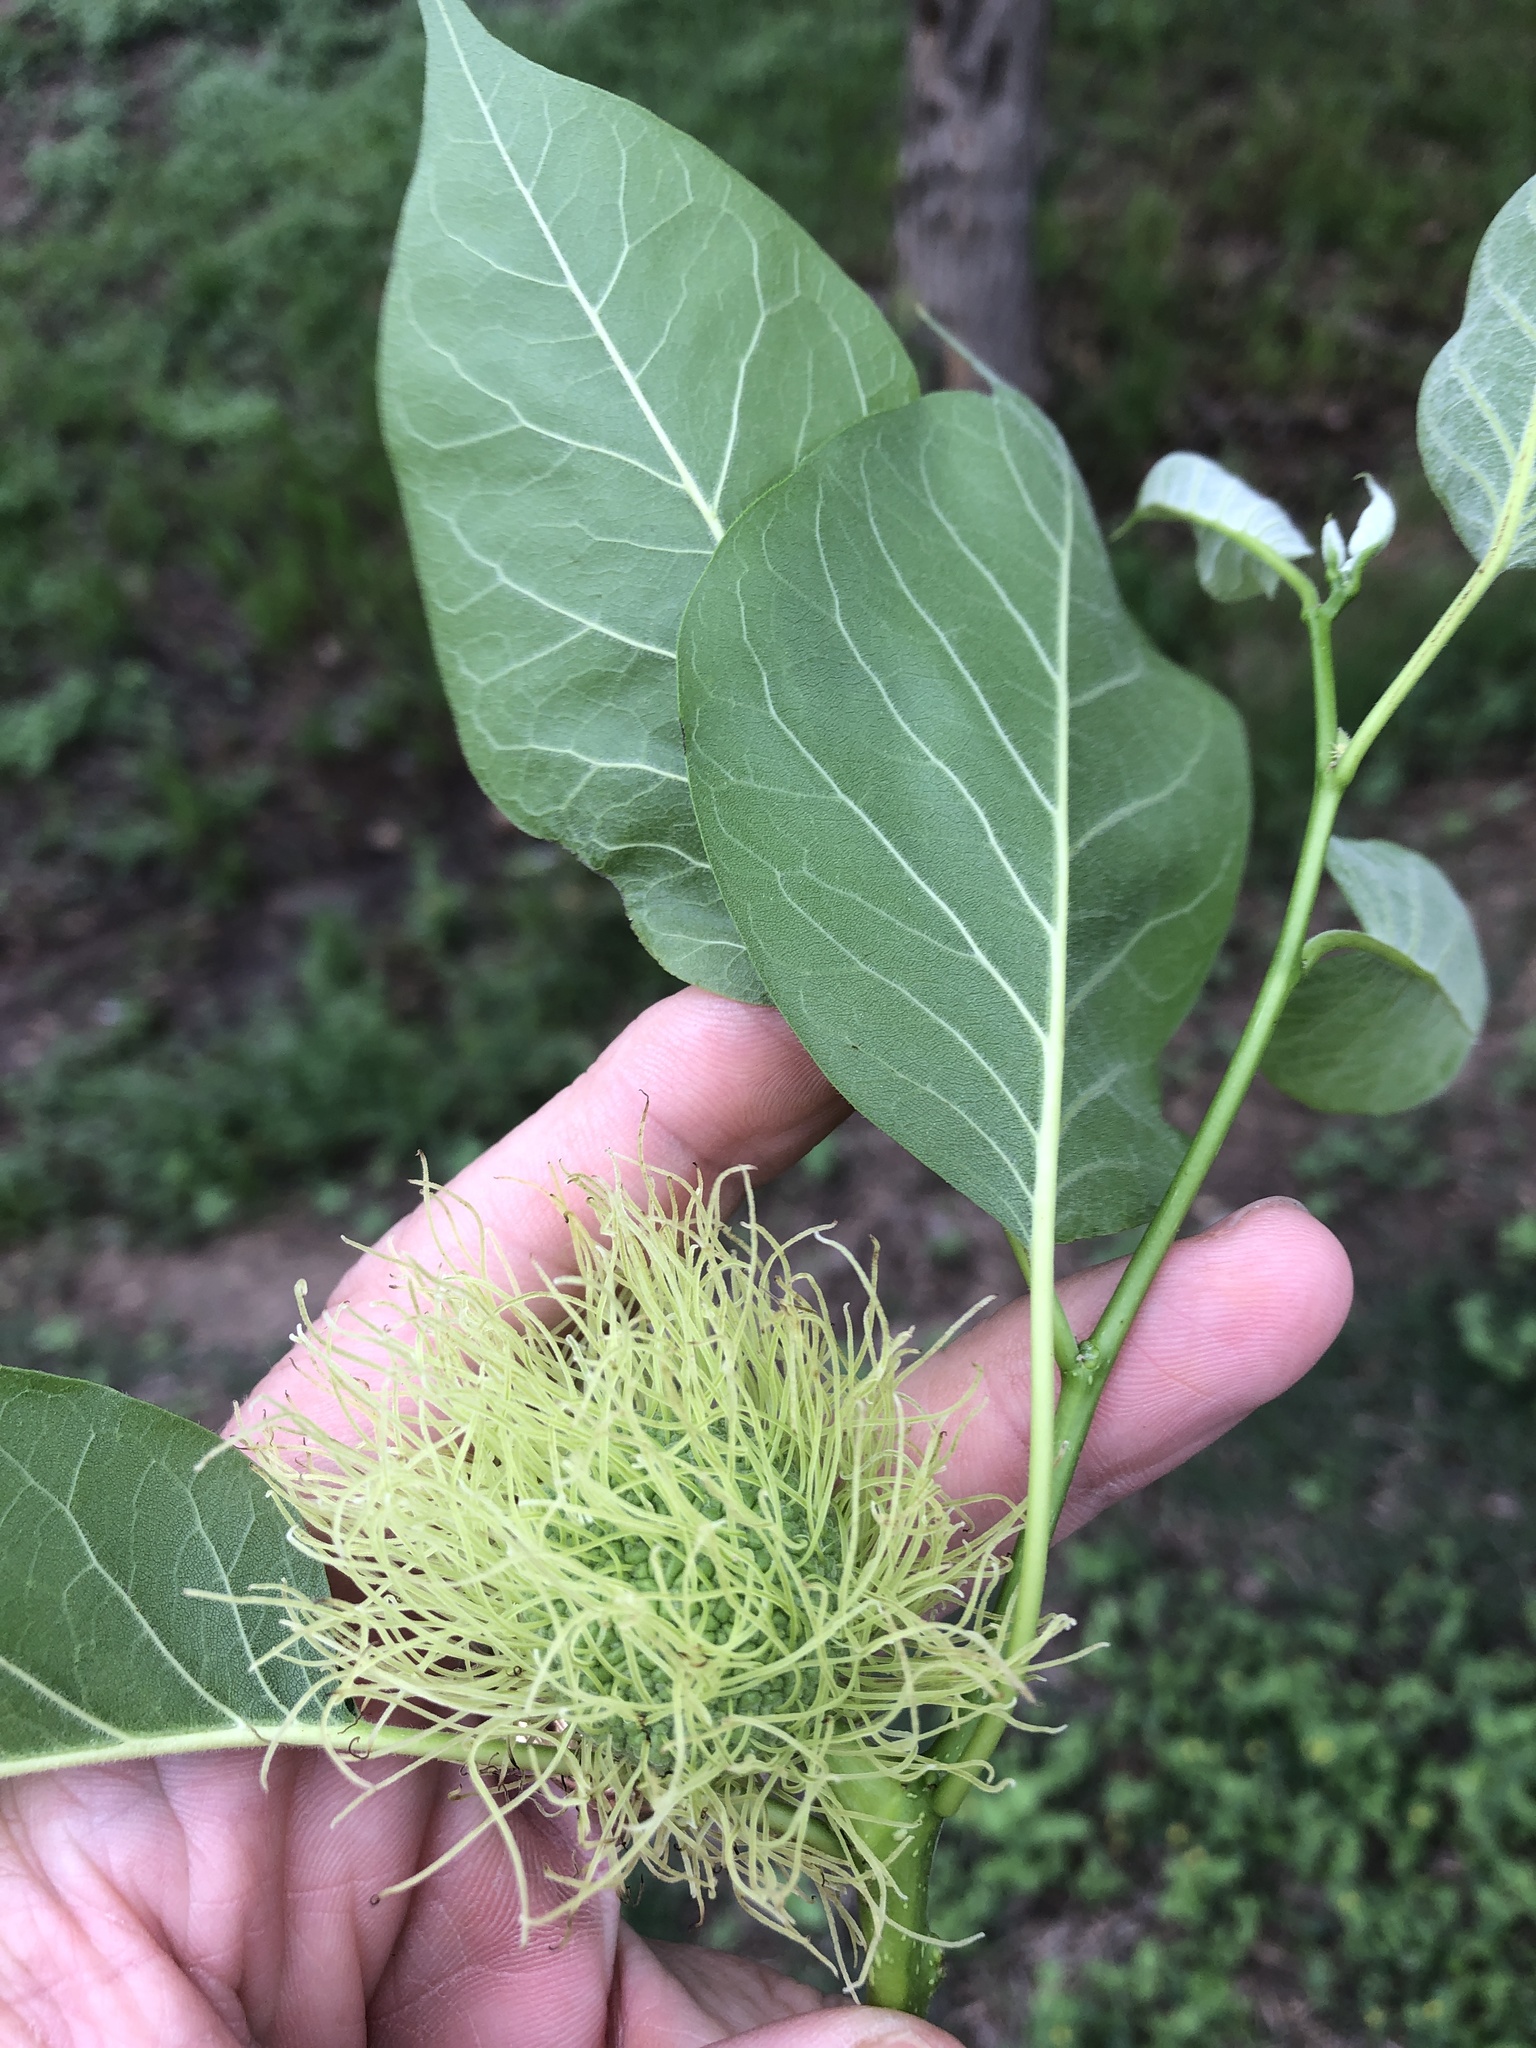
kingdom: Plantae
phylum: Tracheophyta
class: Magnoliopsida
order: Rosales
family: Moraceae
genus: Maclura
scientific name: Maclura pomifera
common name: Osage-orange
